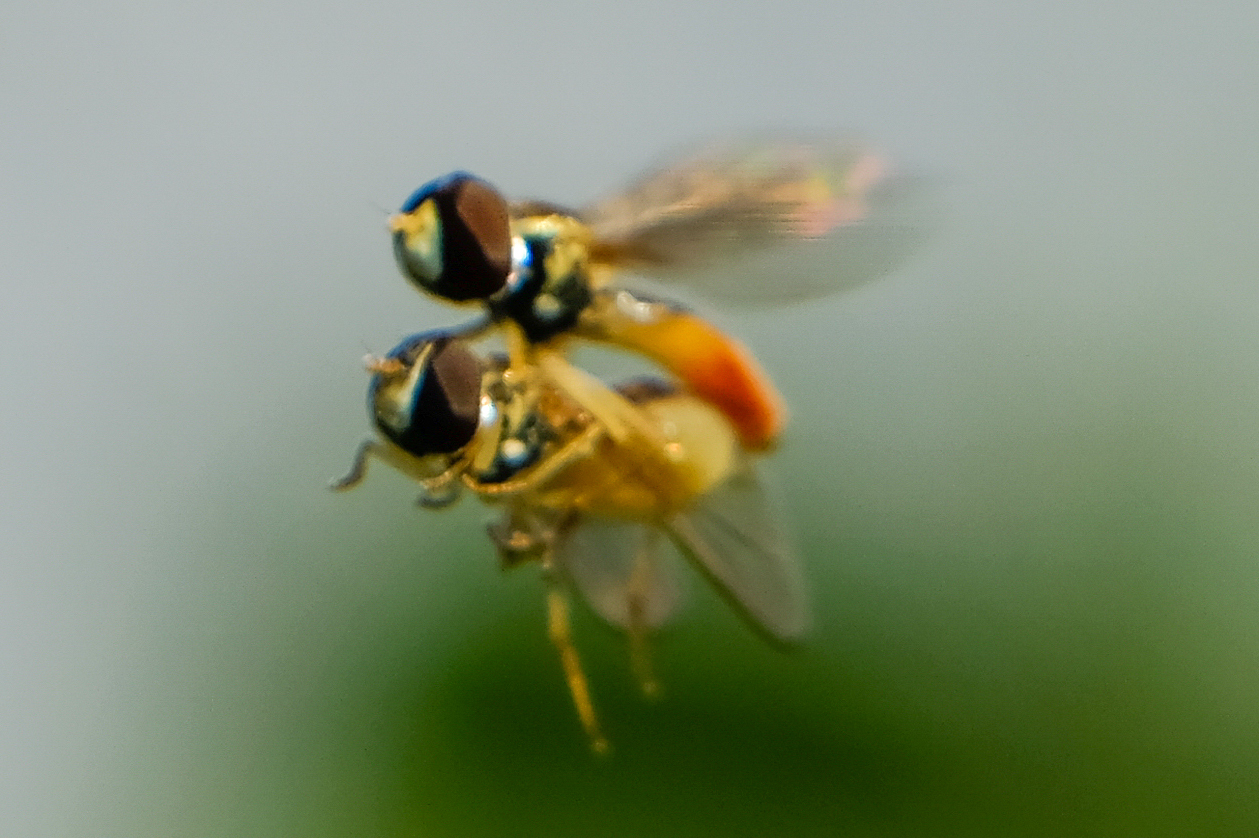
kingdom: Animalia
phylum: Arthropoda
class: Insecta
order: Diptera
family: Syrphidae
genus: Toxomerus
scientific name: Toxomerus
